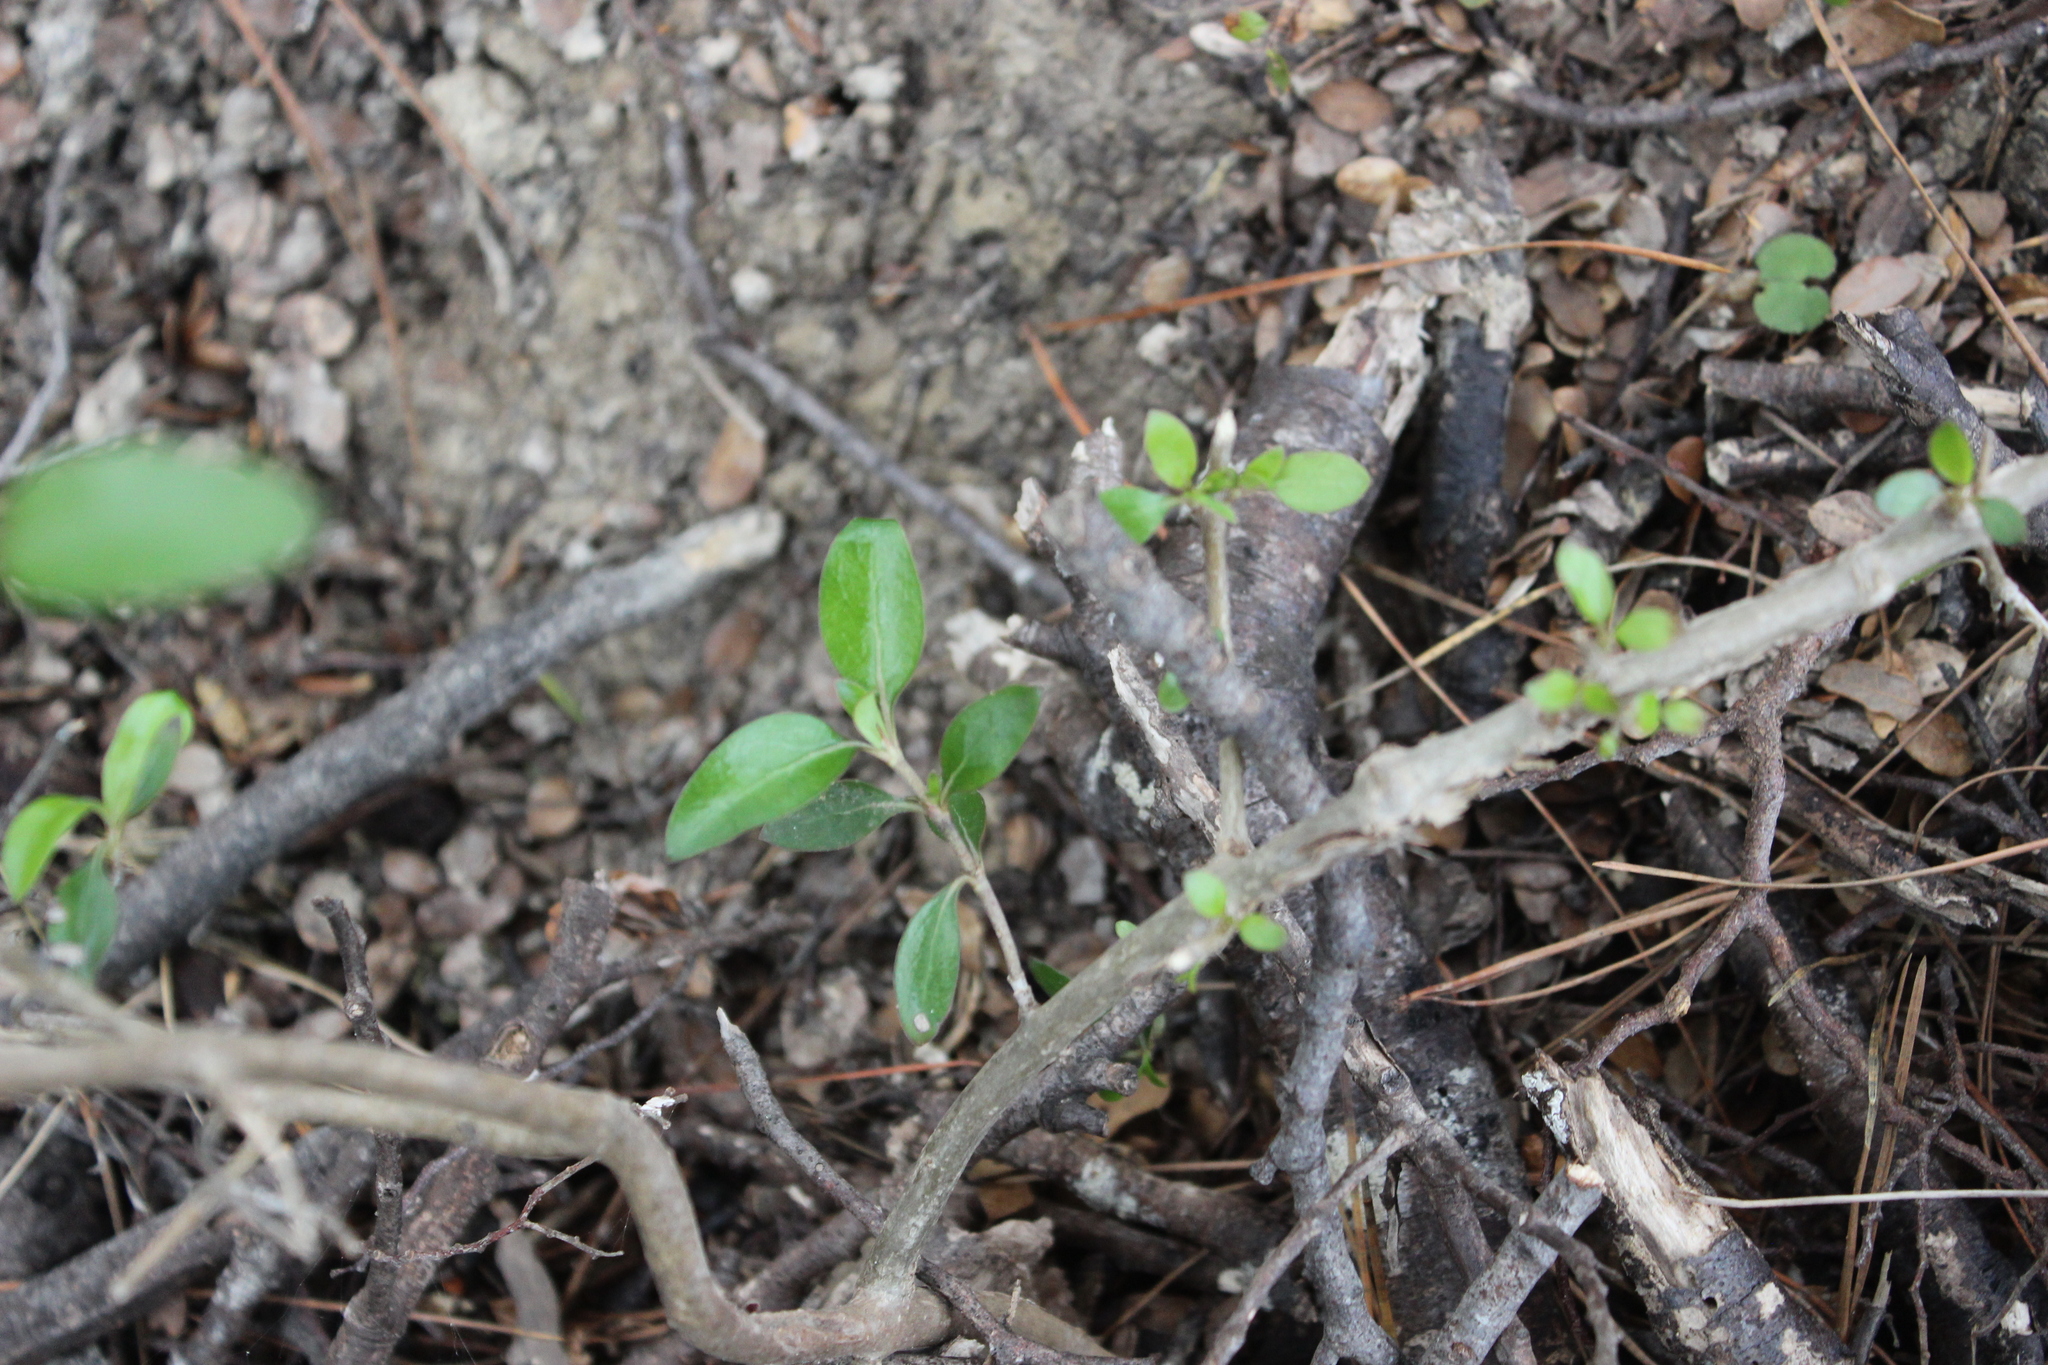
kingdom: Plantae
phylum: Tracheophyta
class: Magnoliopsida
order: Gentianales
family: Rubiaceae
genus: Coprosma
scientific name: Coprosma cunninghamii
